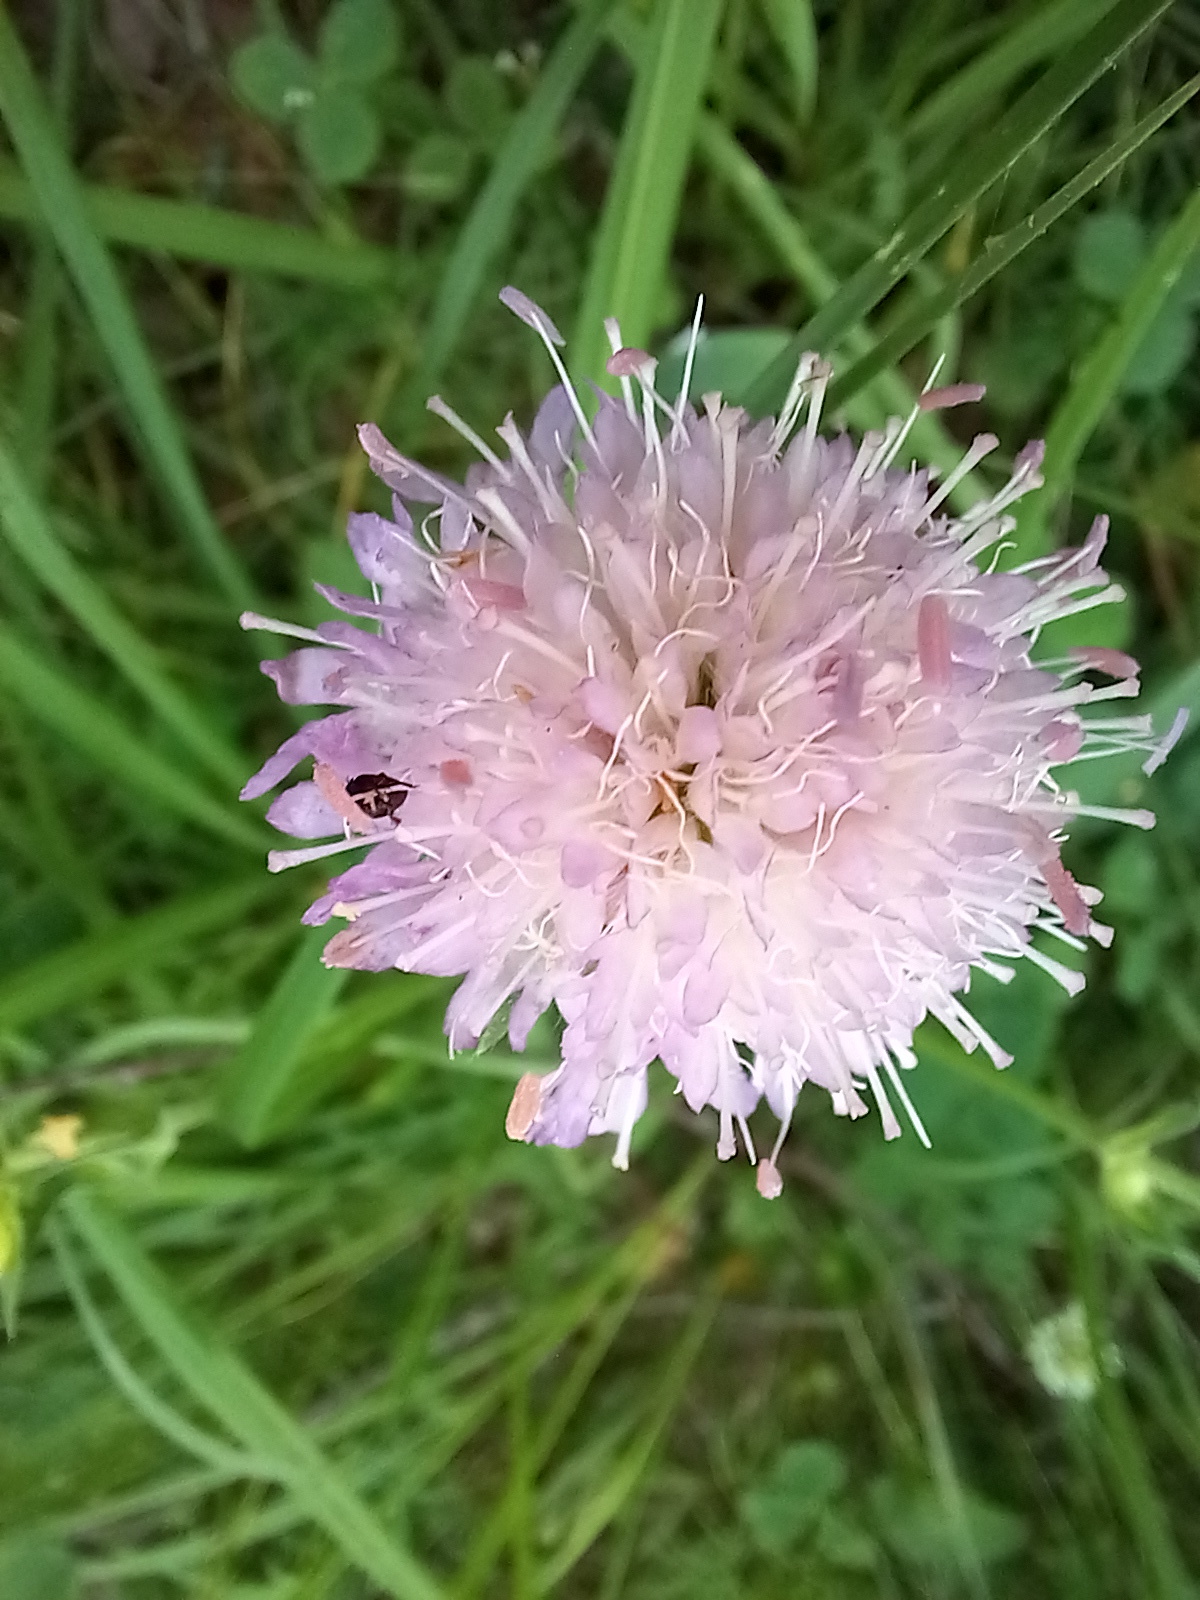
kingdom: Plantae
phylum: Tracheophyta
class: Magnoliopsida
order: Dipsacales
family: Caprifoliaceae
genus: Knautia
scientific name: Knautia arvensis
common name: Field scabiosa
